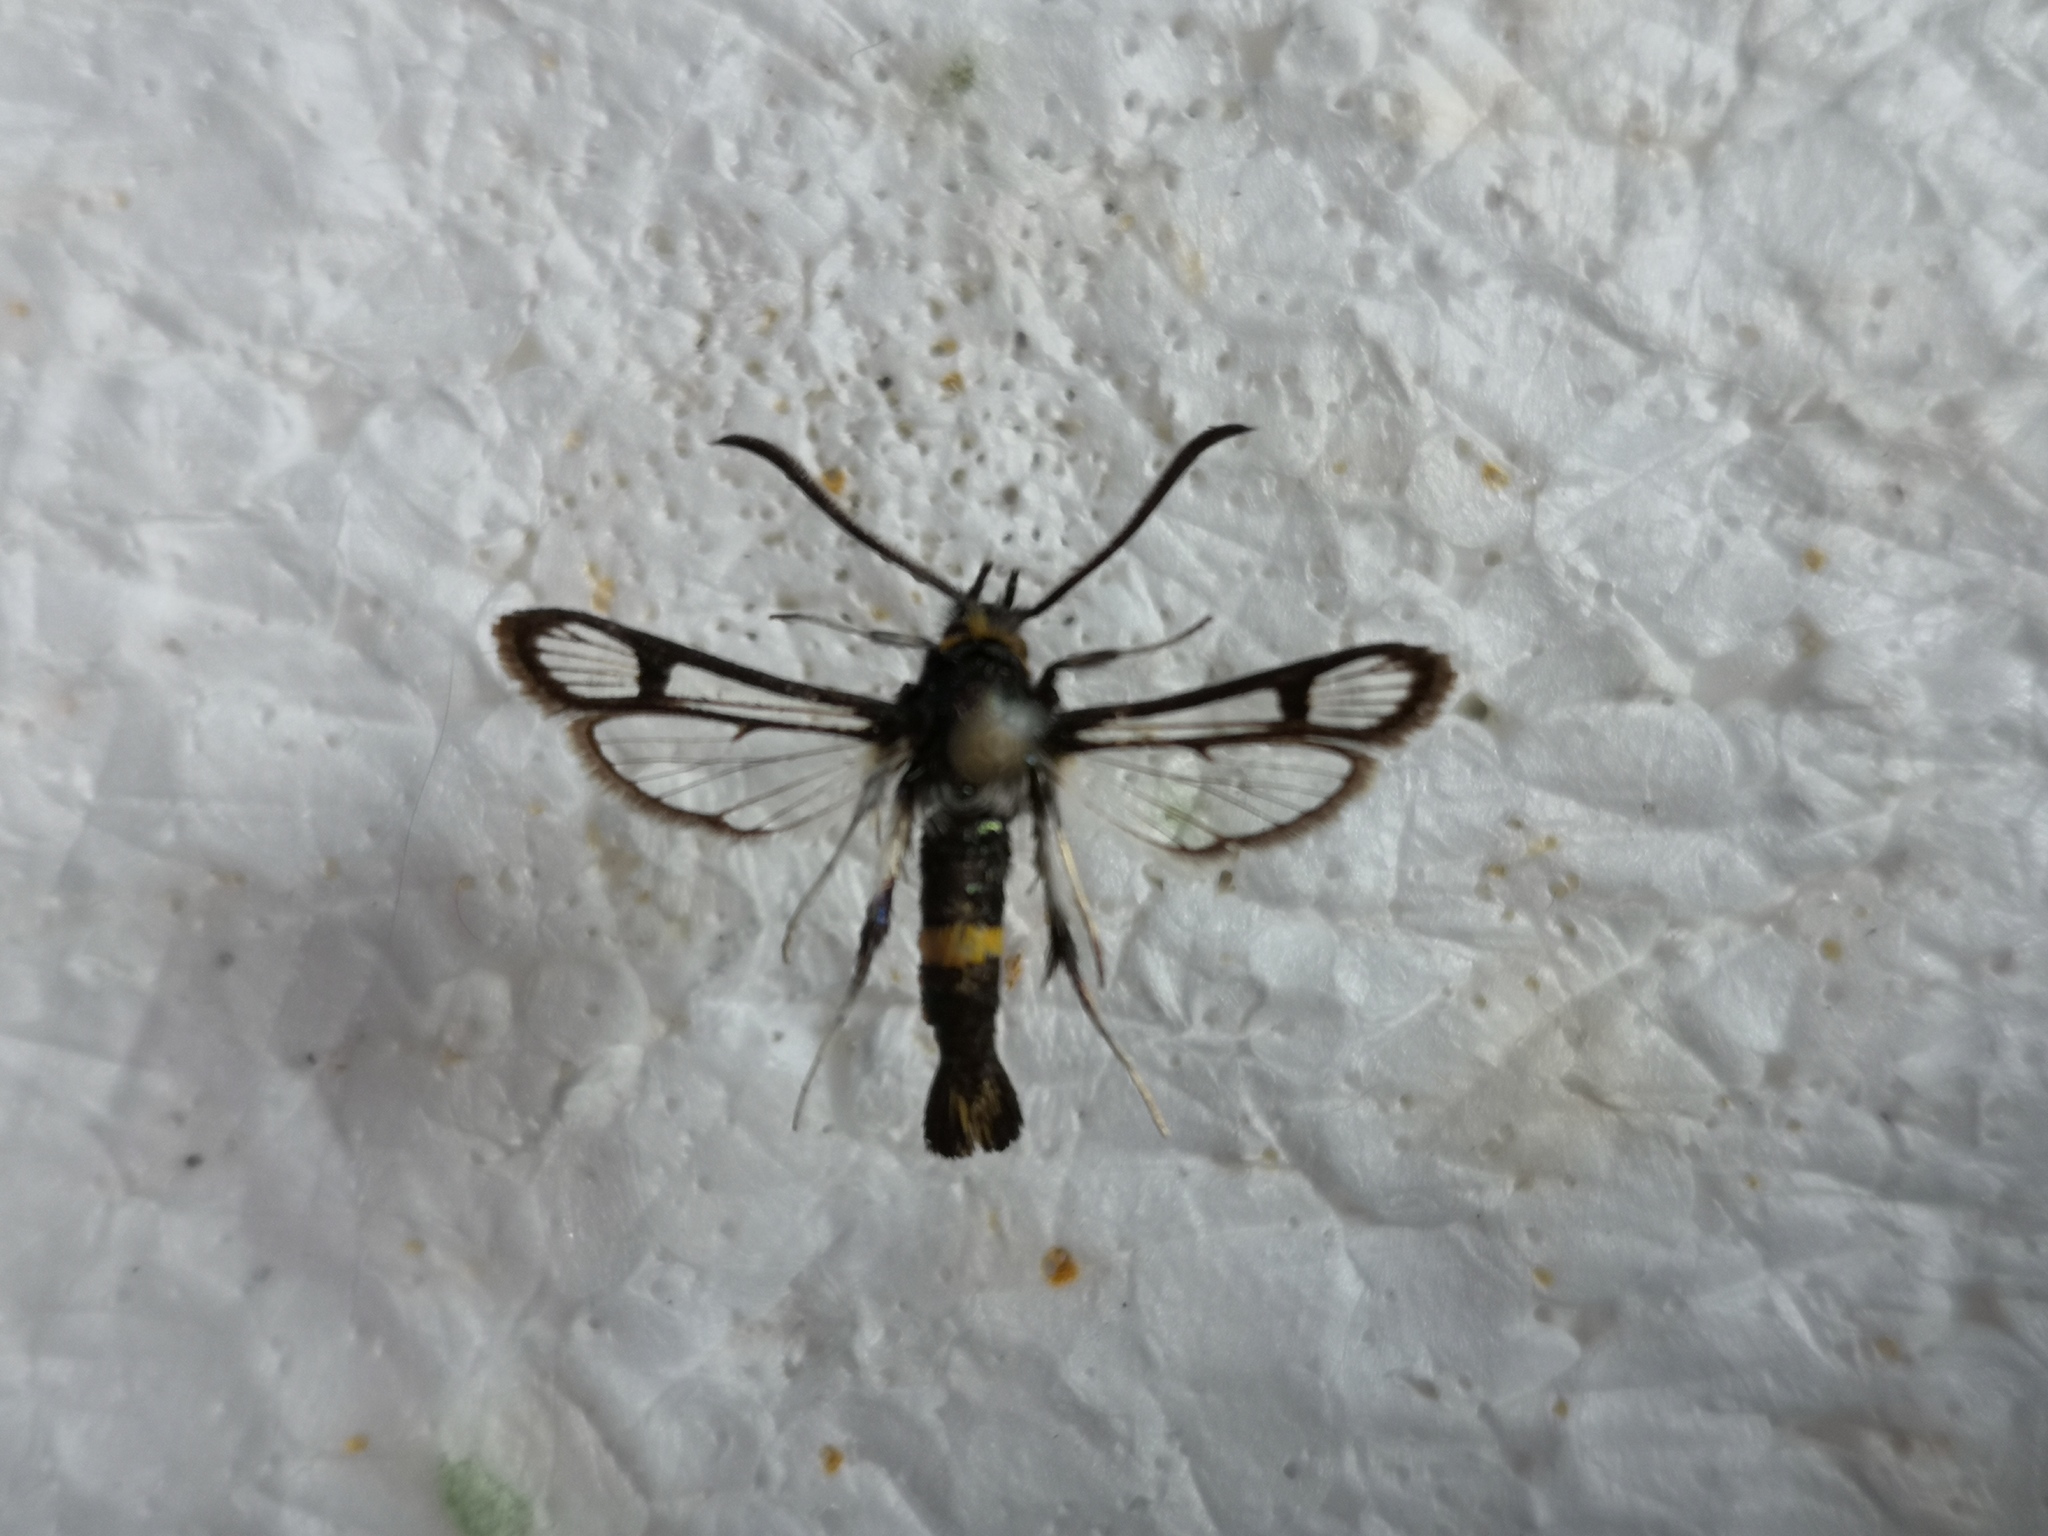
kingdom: Animalia
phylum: Arthropoda
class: Insecta
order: Lepidoptera
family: Sesiidae
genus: Pyropteron
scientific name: Pyropteron jordanicum
